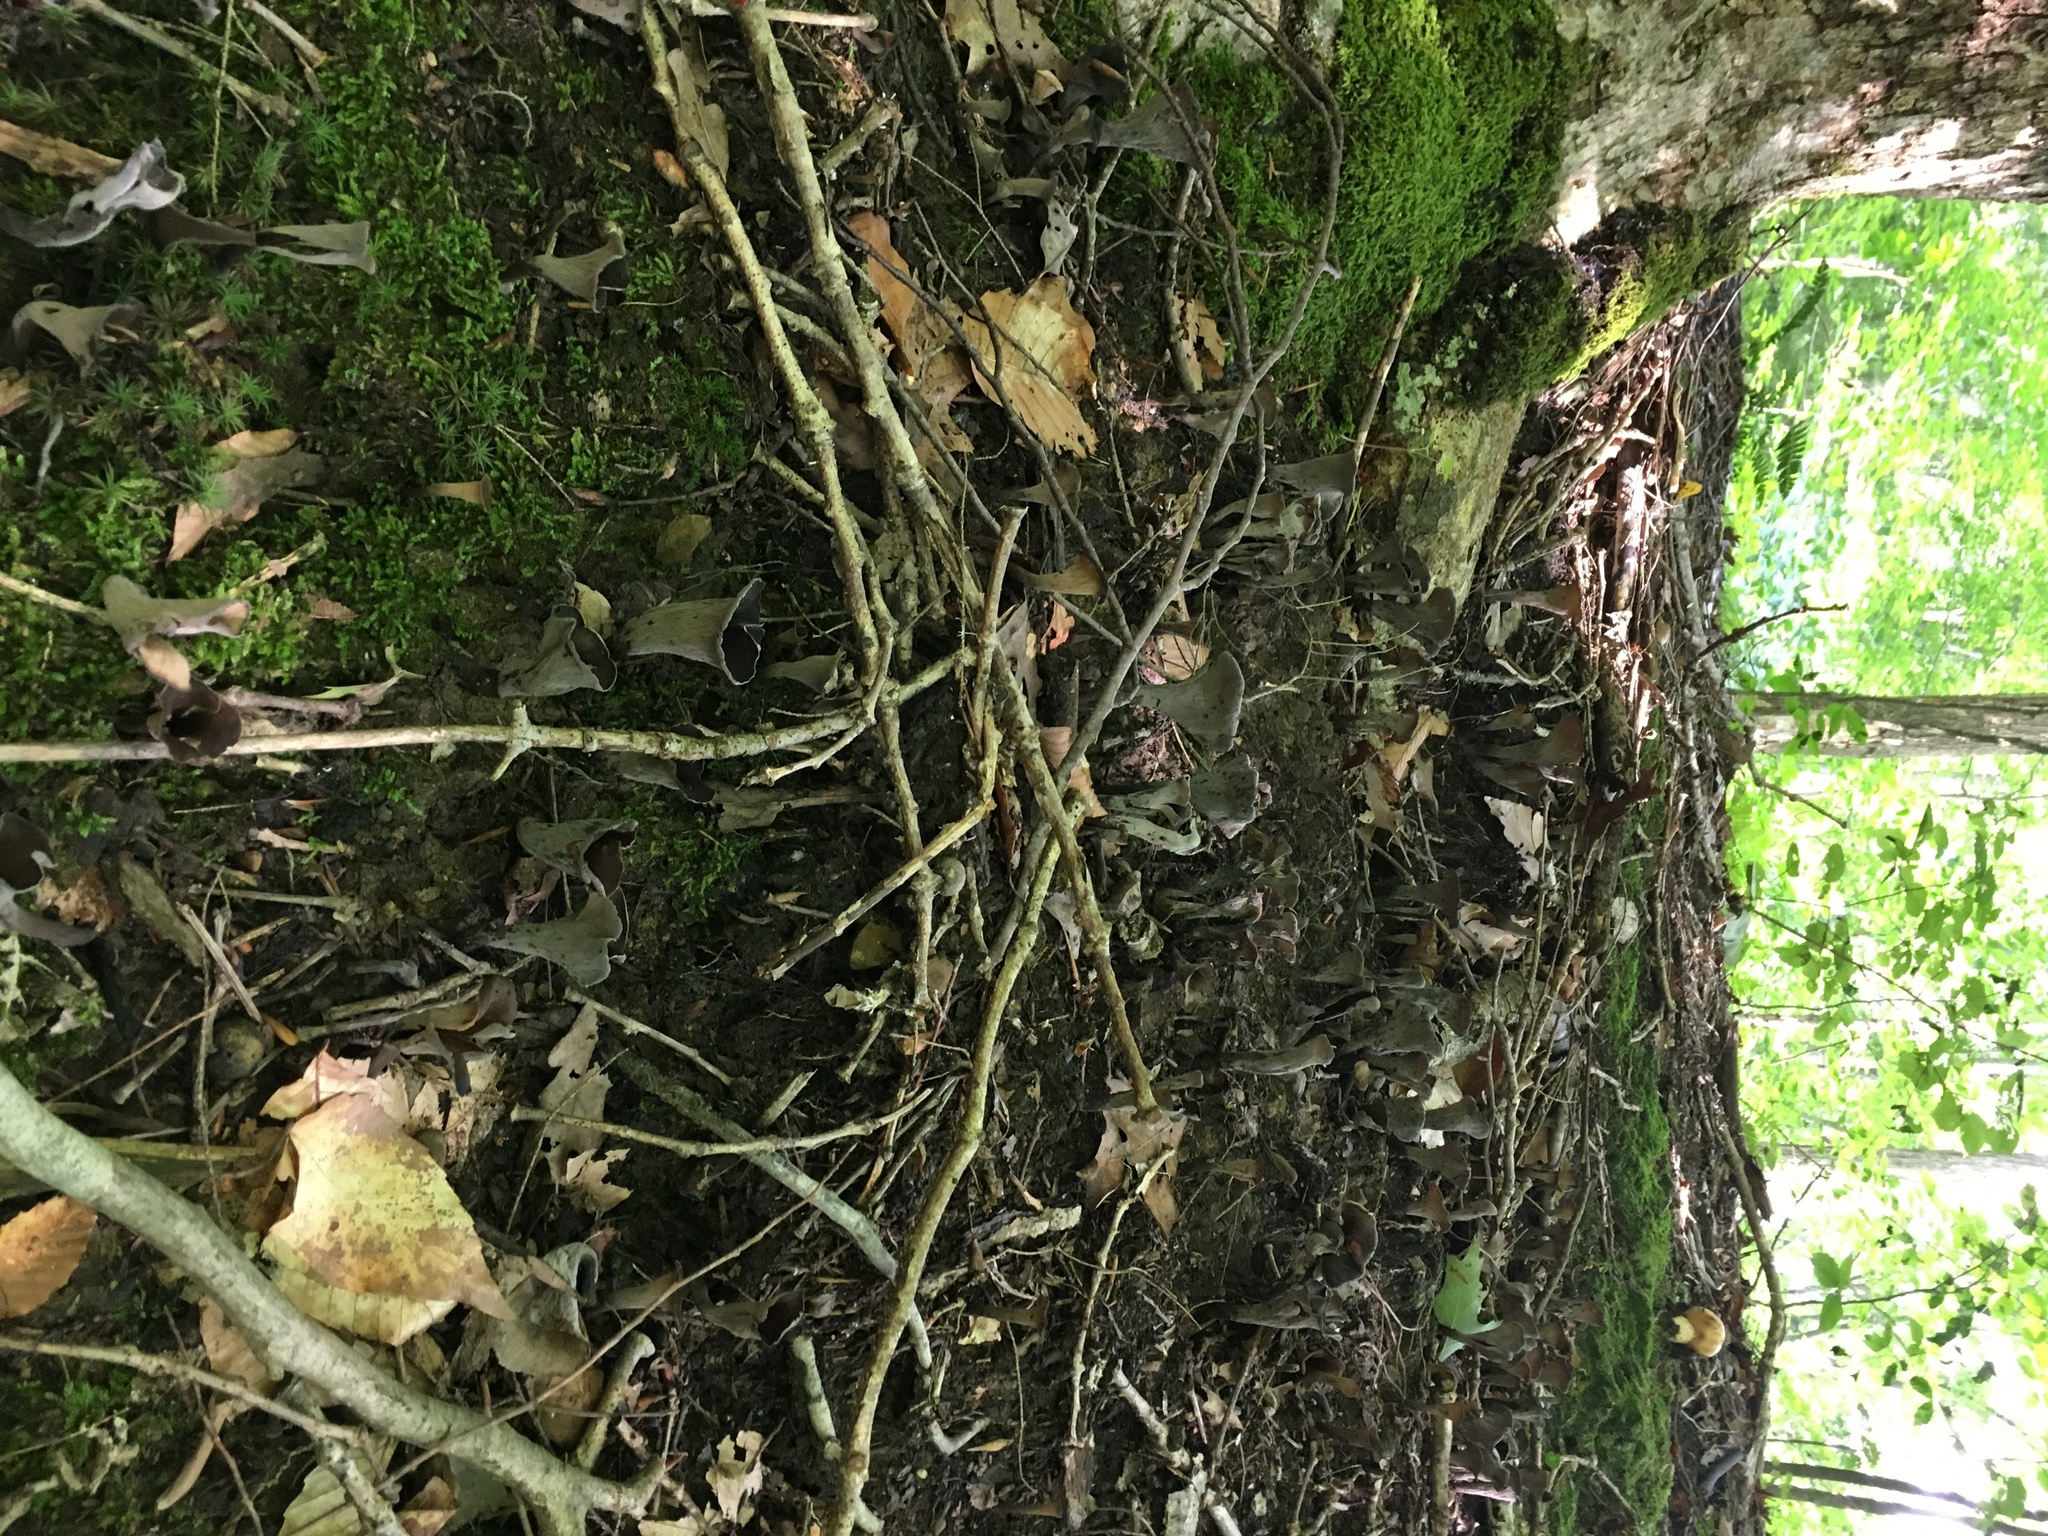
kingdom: Fungi
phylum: Basidiomycota
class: Agaricomycetes
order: Cantharellales
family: Hydnaceae
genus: Craterellus
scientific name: Craterellus cornucopioides
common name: Horn of plenty
